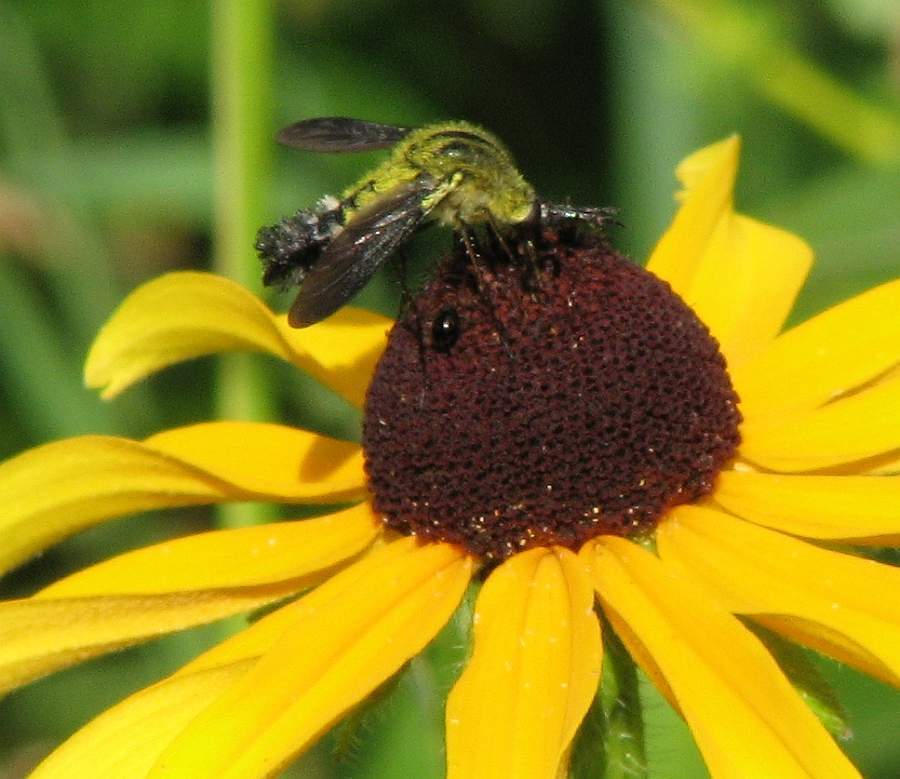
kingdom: Animalia
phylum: Arthropoda
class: Insecta
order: Diptera
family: Bombyliidae
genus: Lepidophora
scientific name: Lepidophora lutea
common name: Hunchback bee fly
